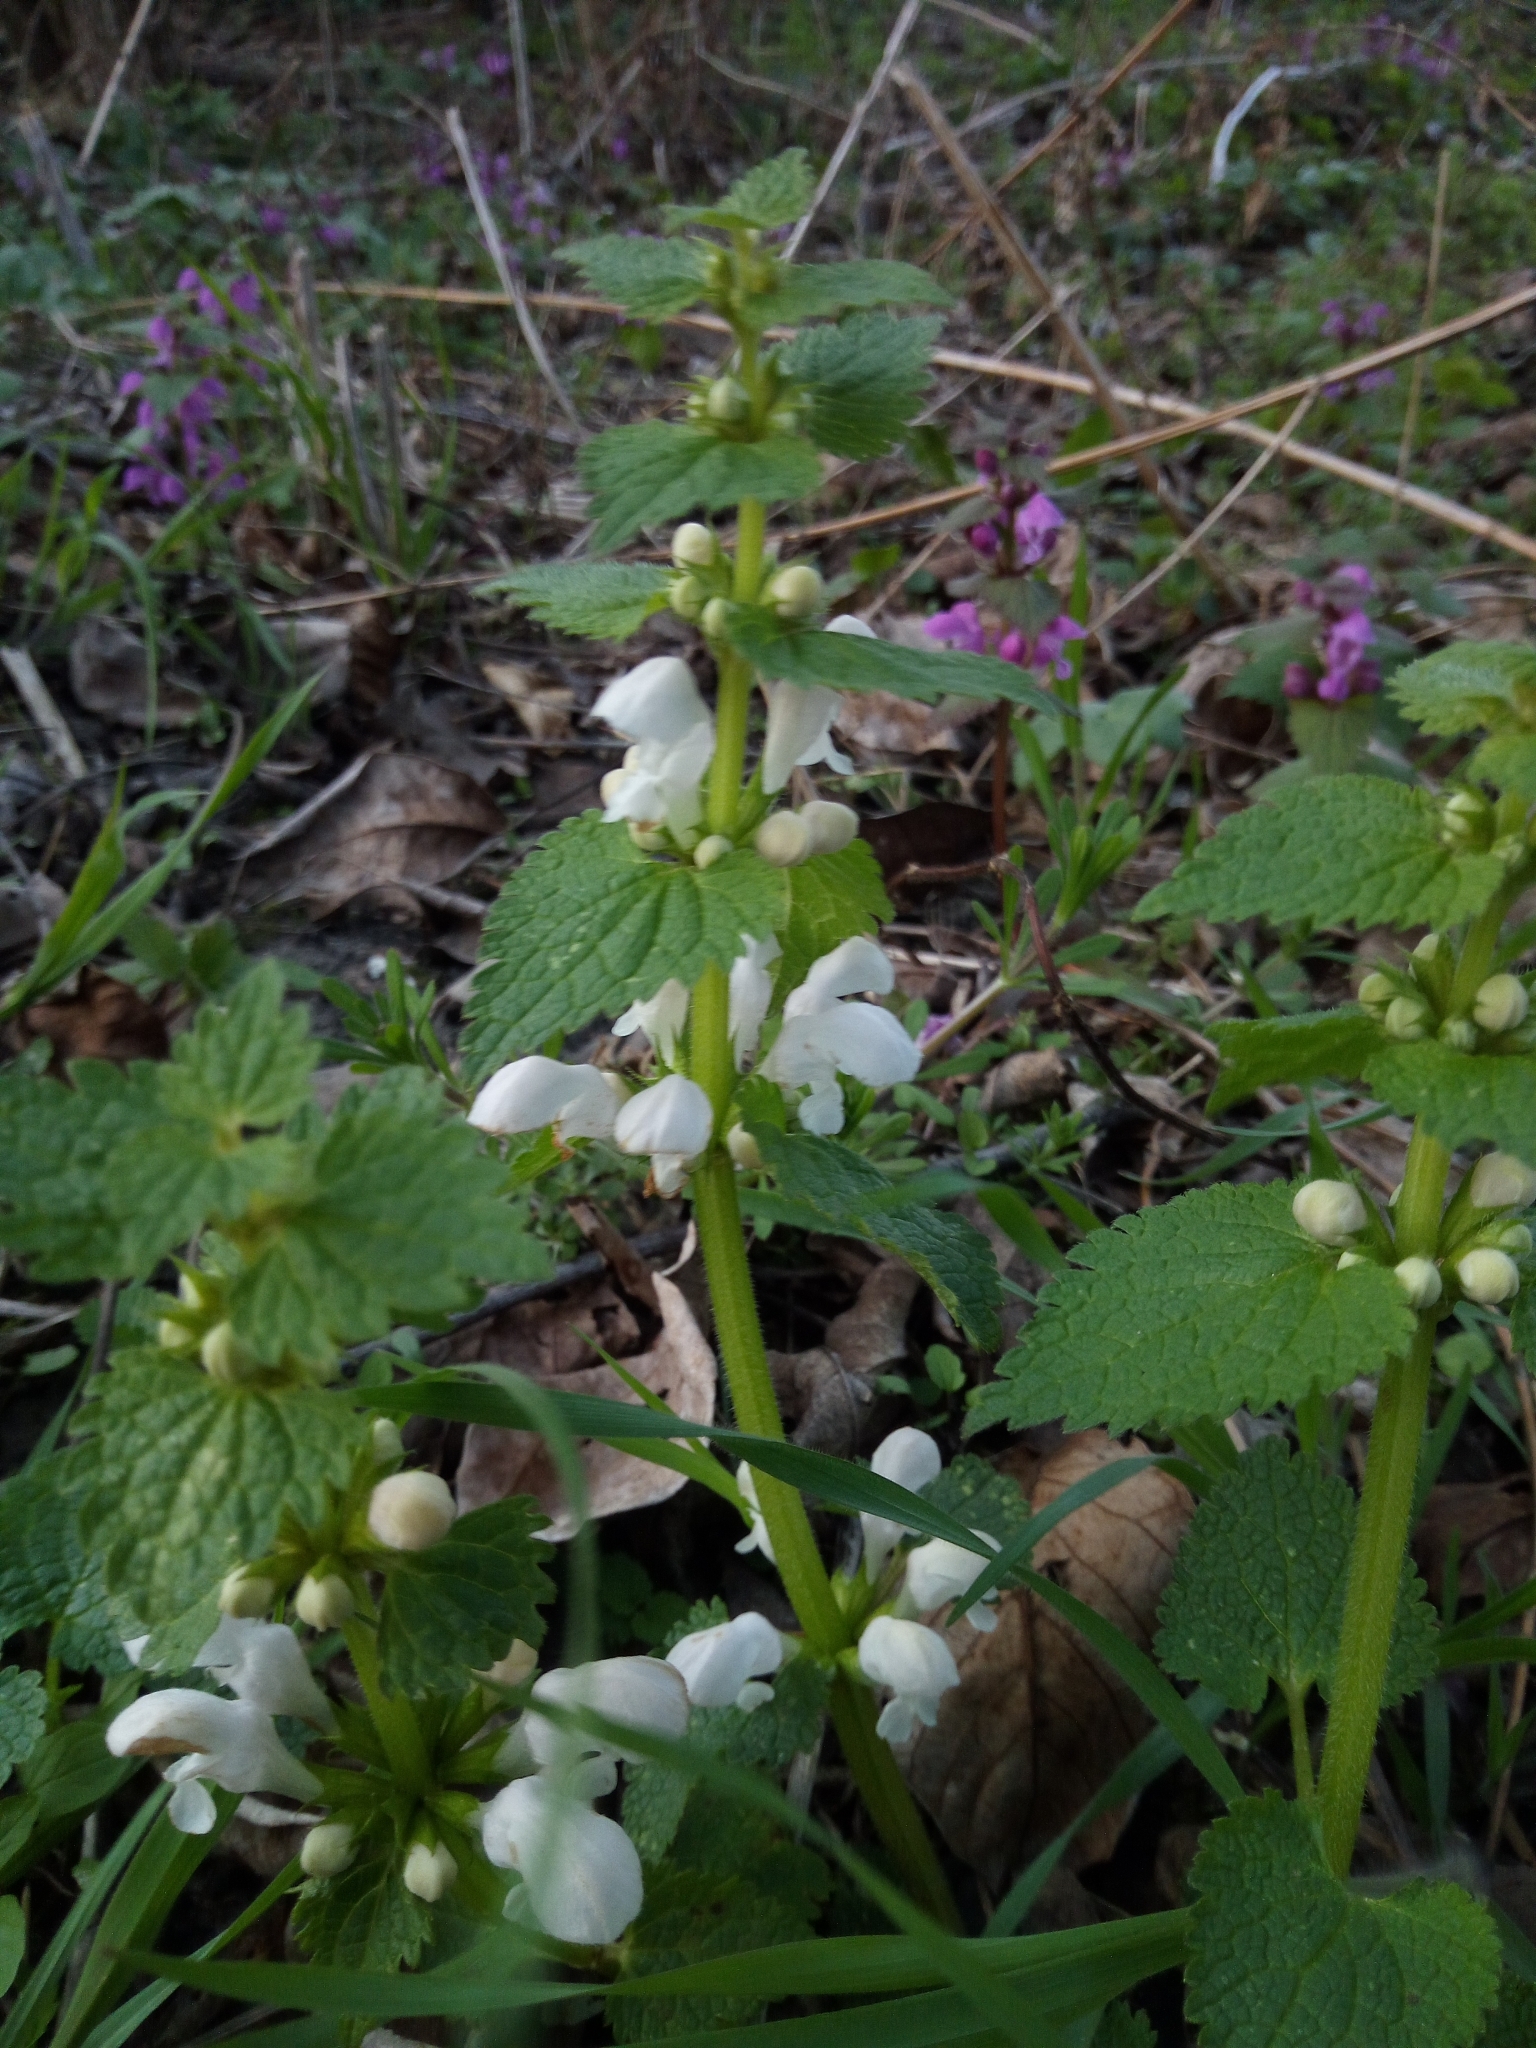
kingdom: Plantae
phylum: Tracheophyta
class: Magnoliopsida
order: Lamiales
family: Lamiaceae
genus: Lamium
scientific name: Lamium maculatum
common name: Spotted dead-nettle
